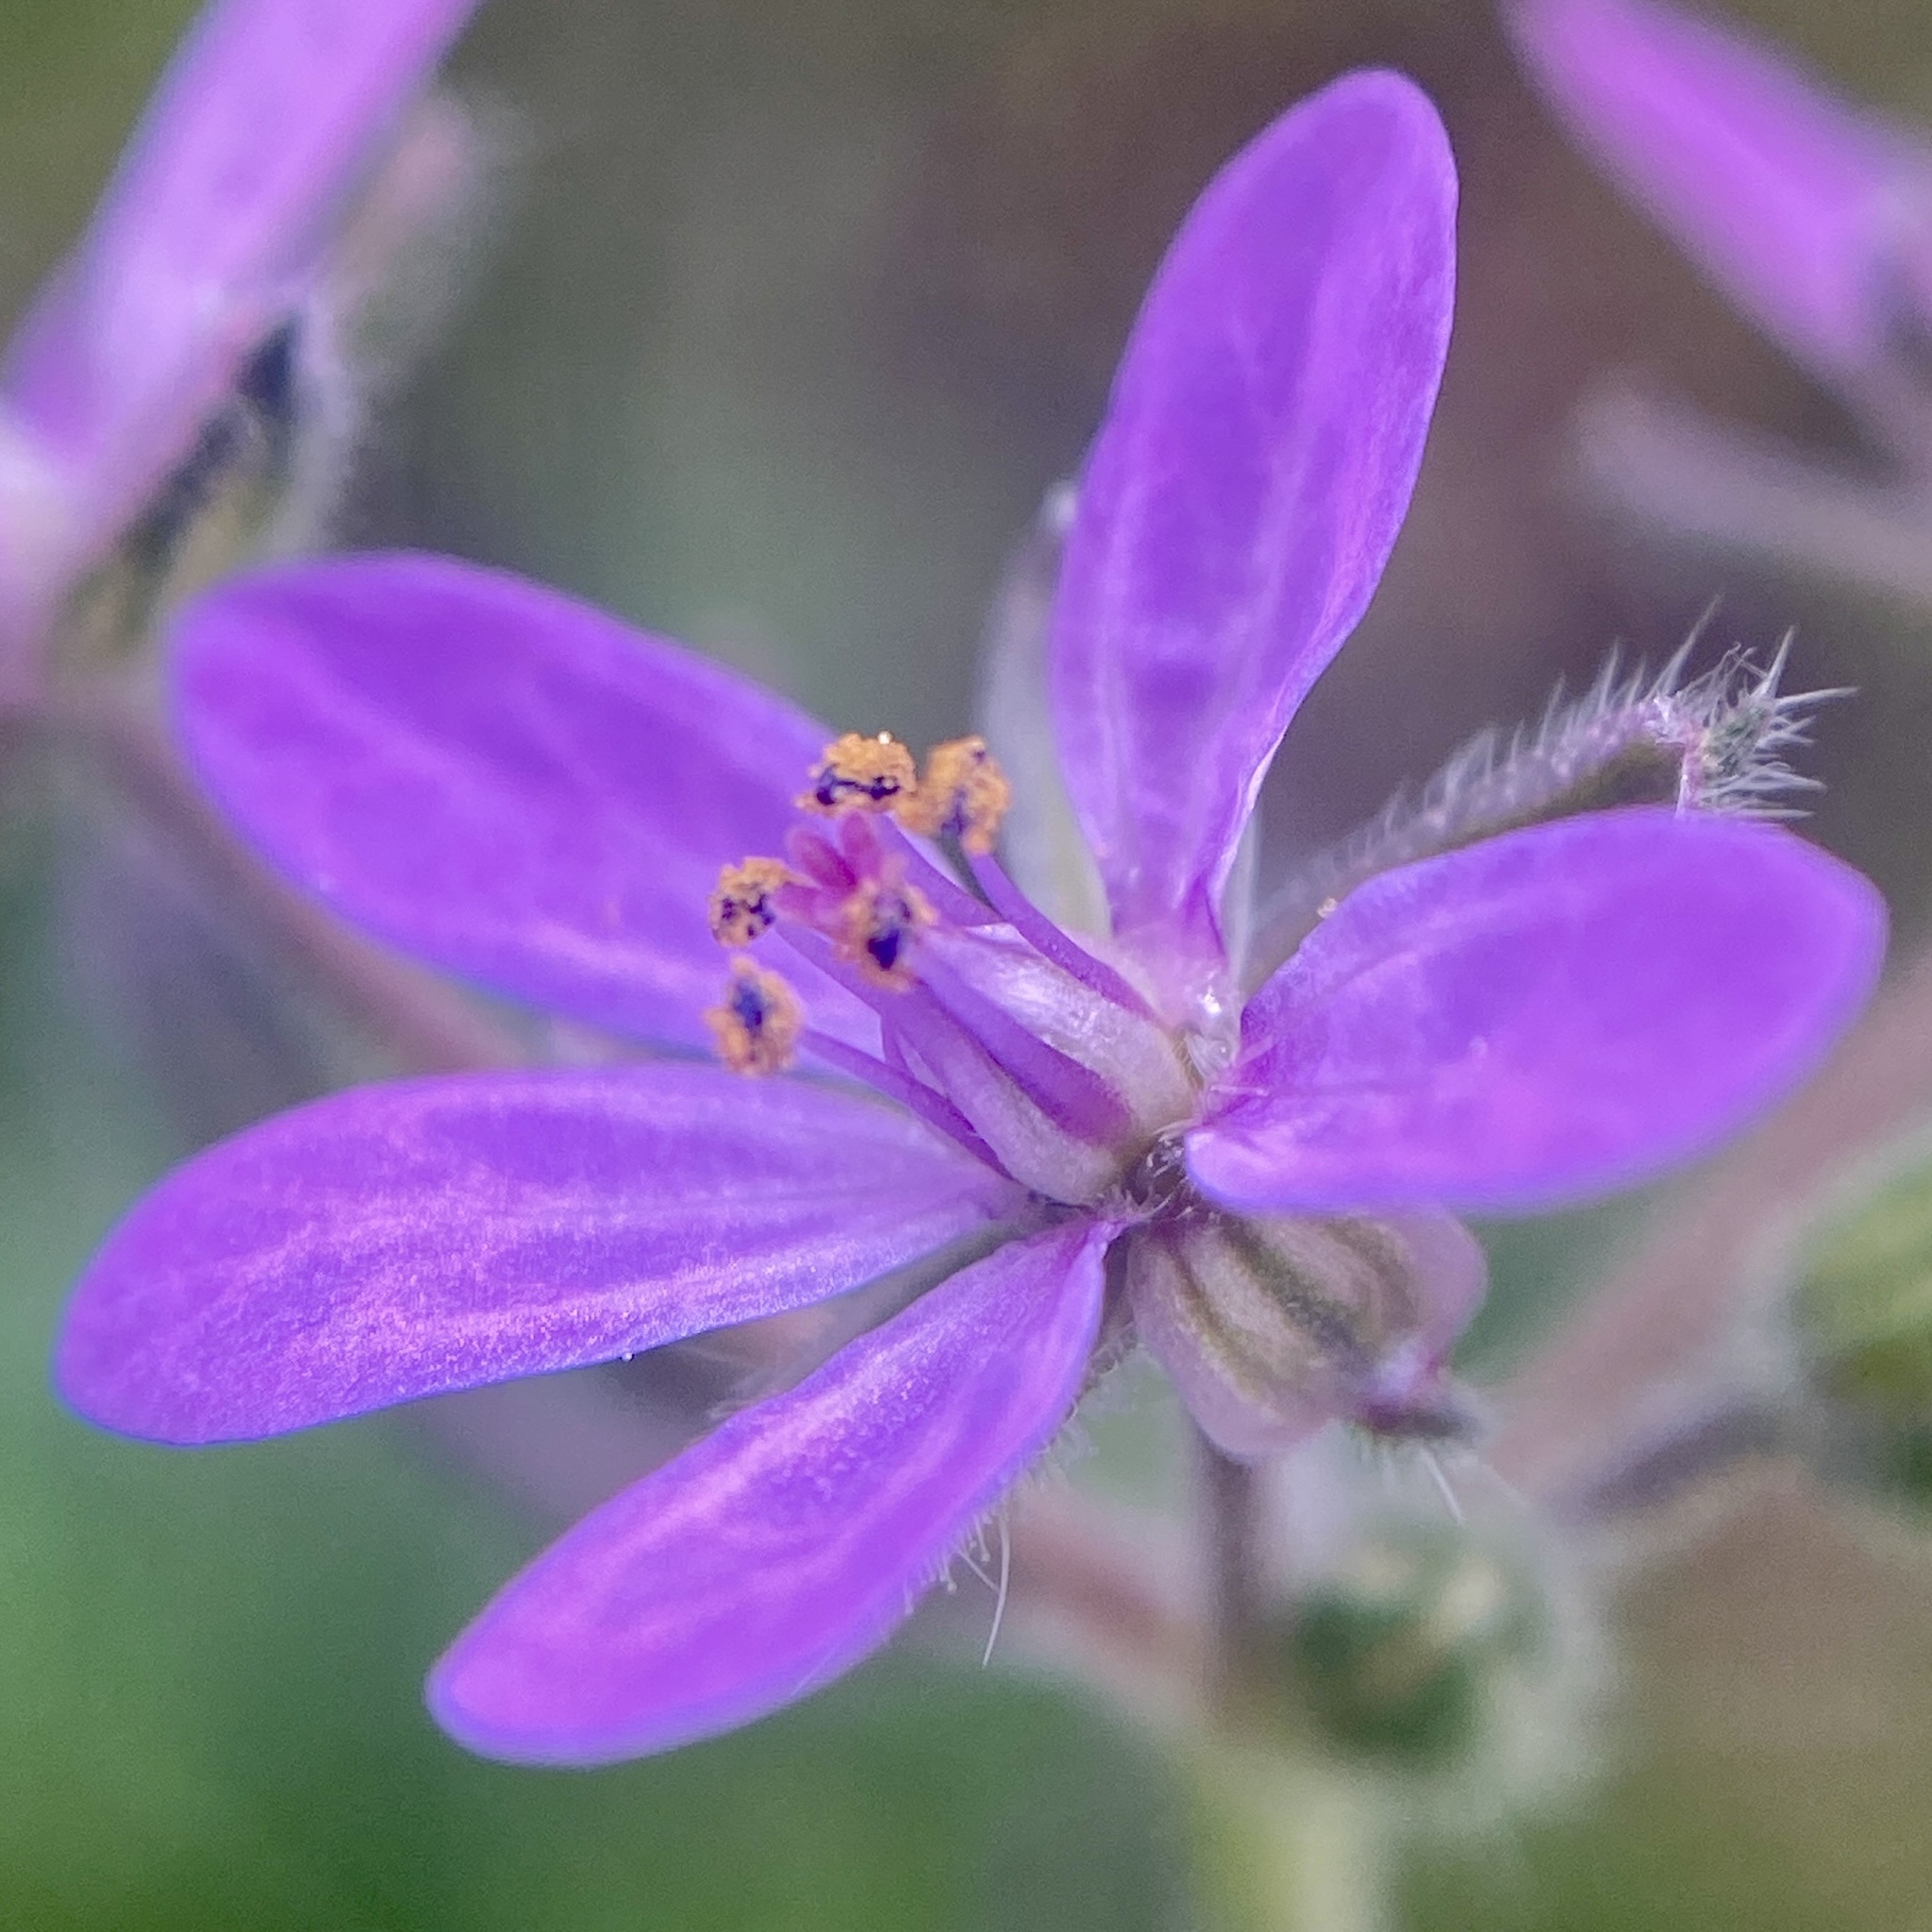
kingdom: Plantae
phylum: Tracheophyta
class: Magnoliopsida
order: Geraniales
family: Geraniaceae
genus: Erodium
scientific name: Erodium malacoides
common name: Soft stork's-bill
